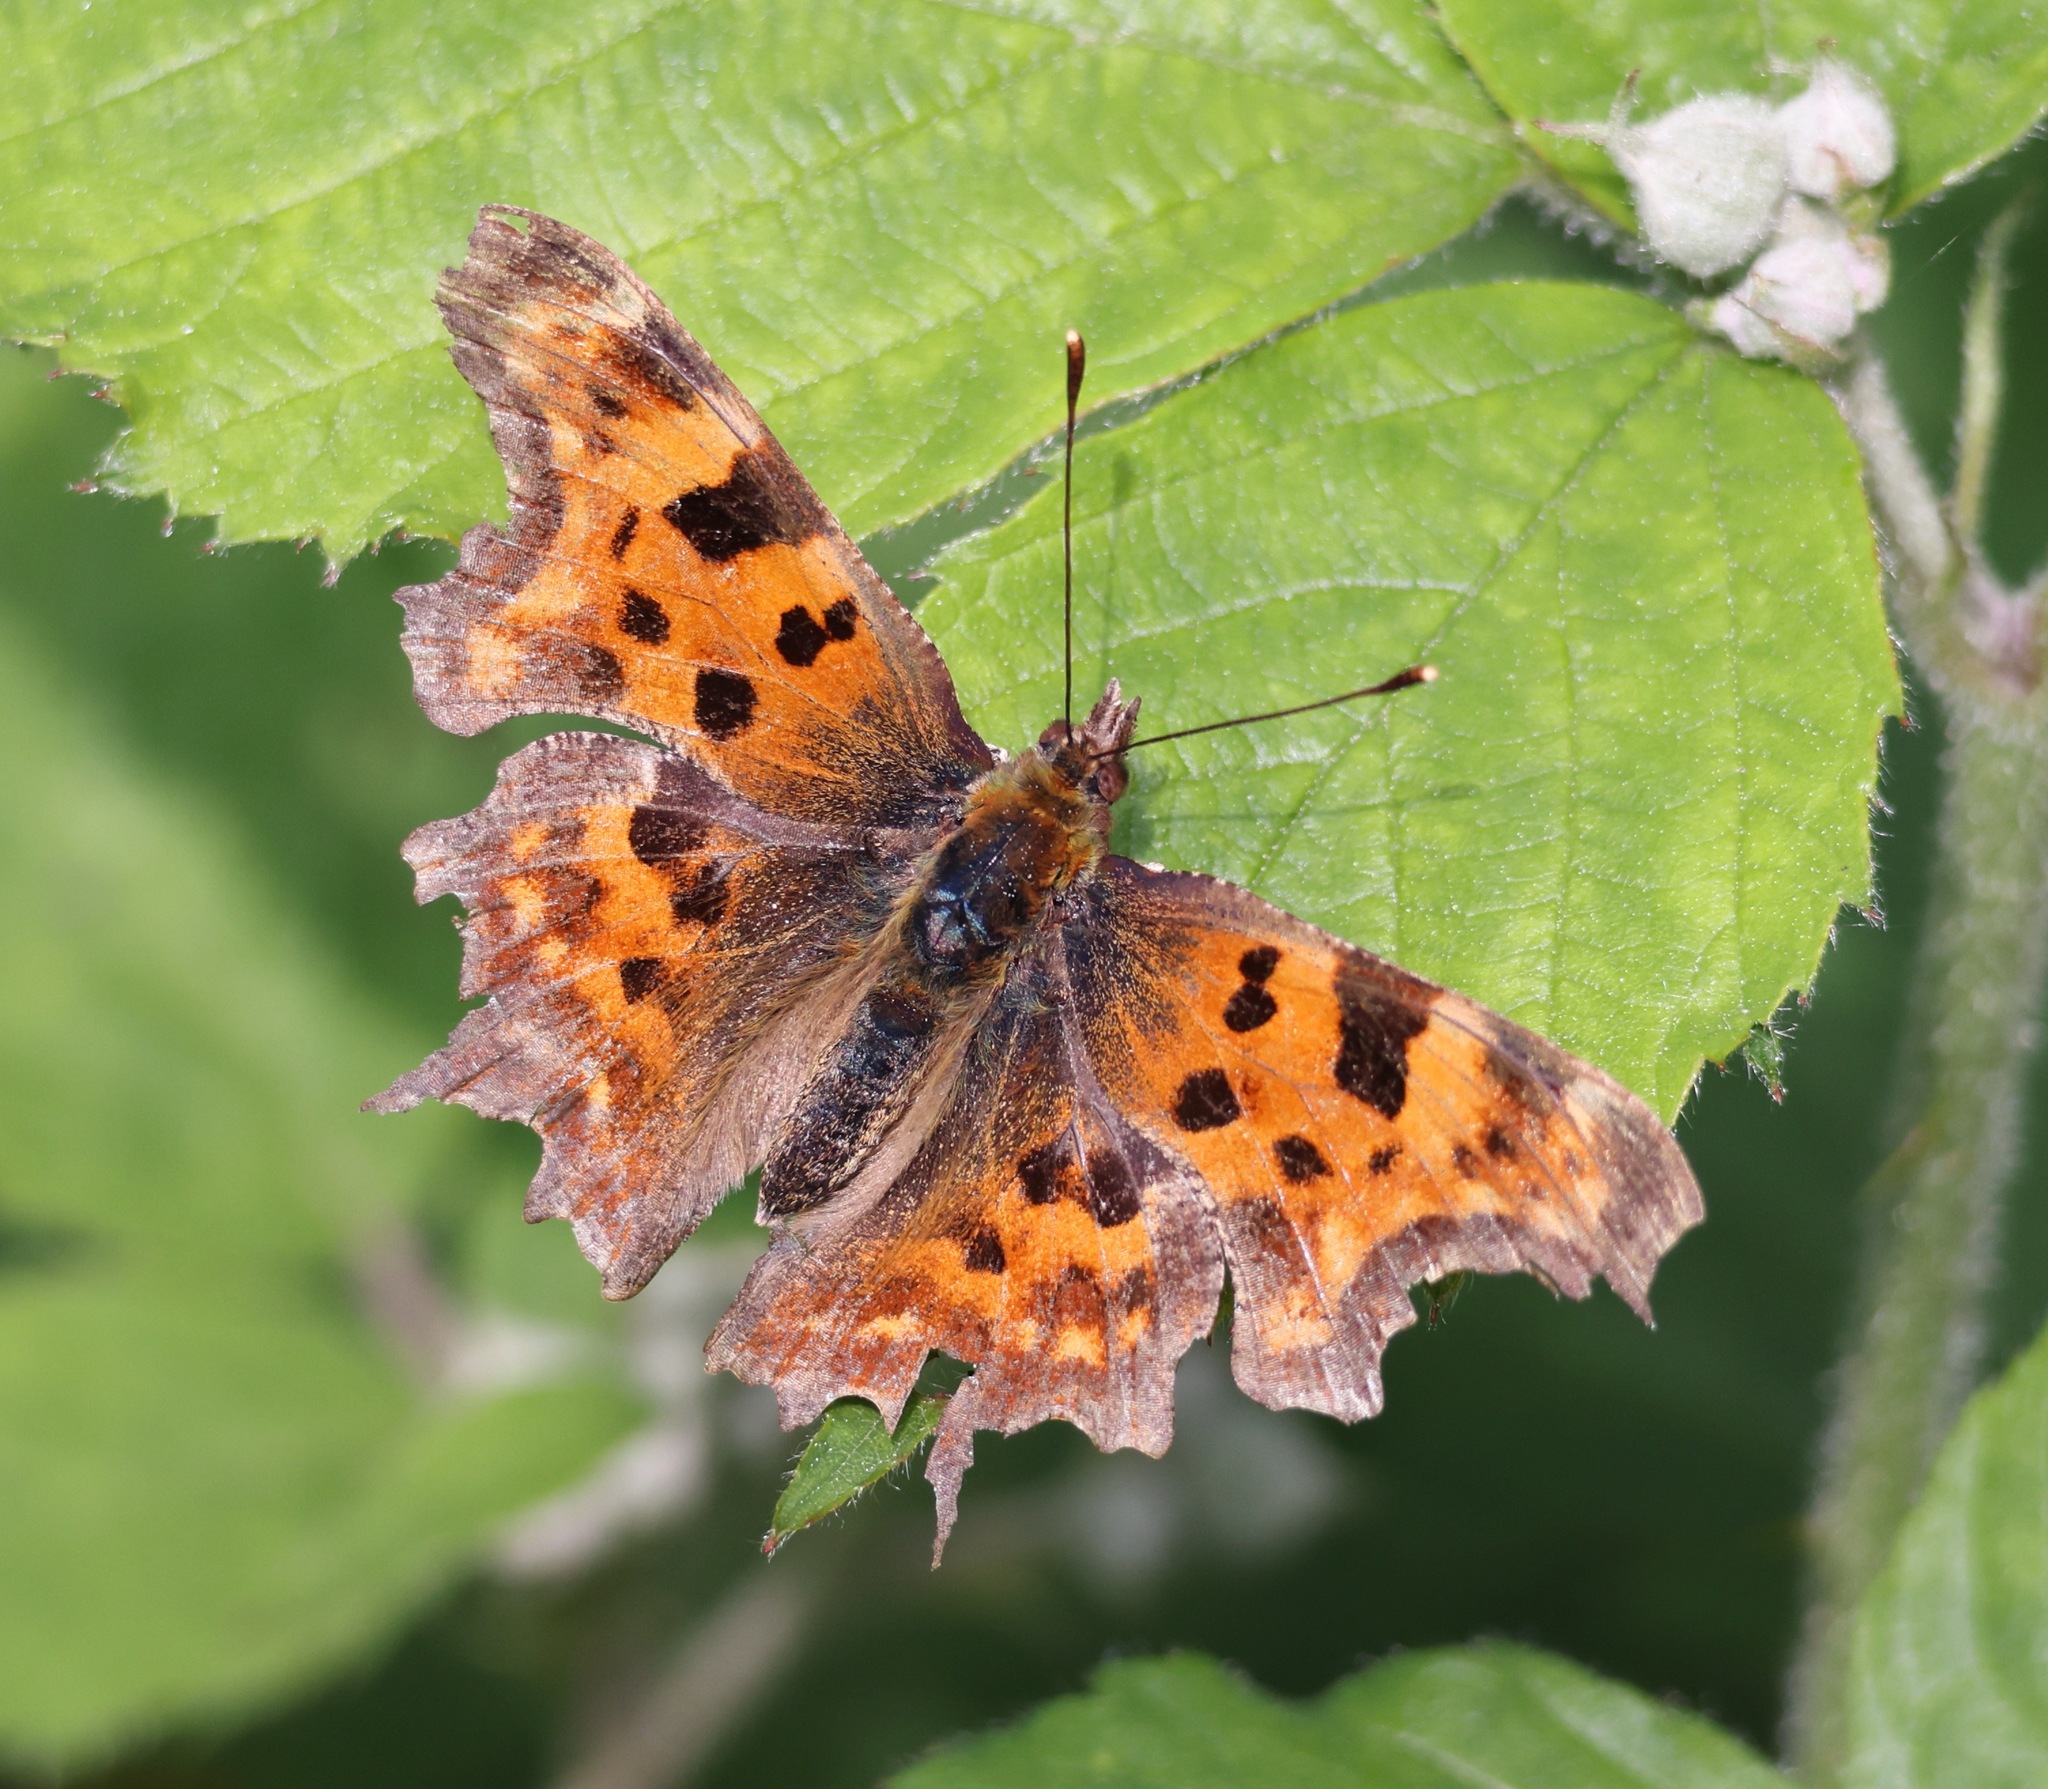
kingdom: Animalia
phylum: Arthropoda
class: Insecta
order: Lepidoptera
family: Nymphalidae
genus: Polygonia
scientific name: Polygonia c-album
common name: Comma
